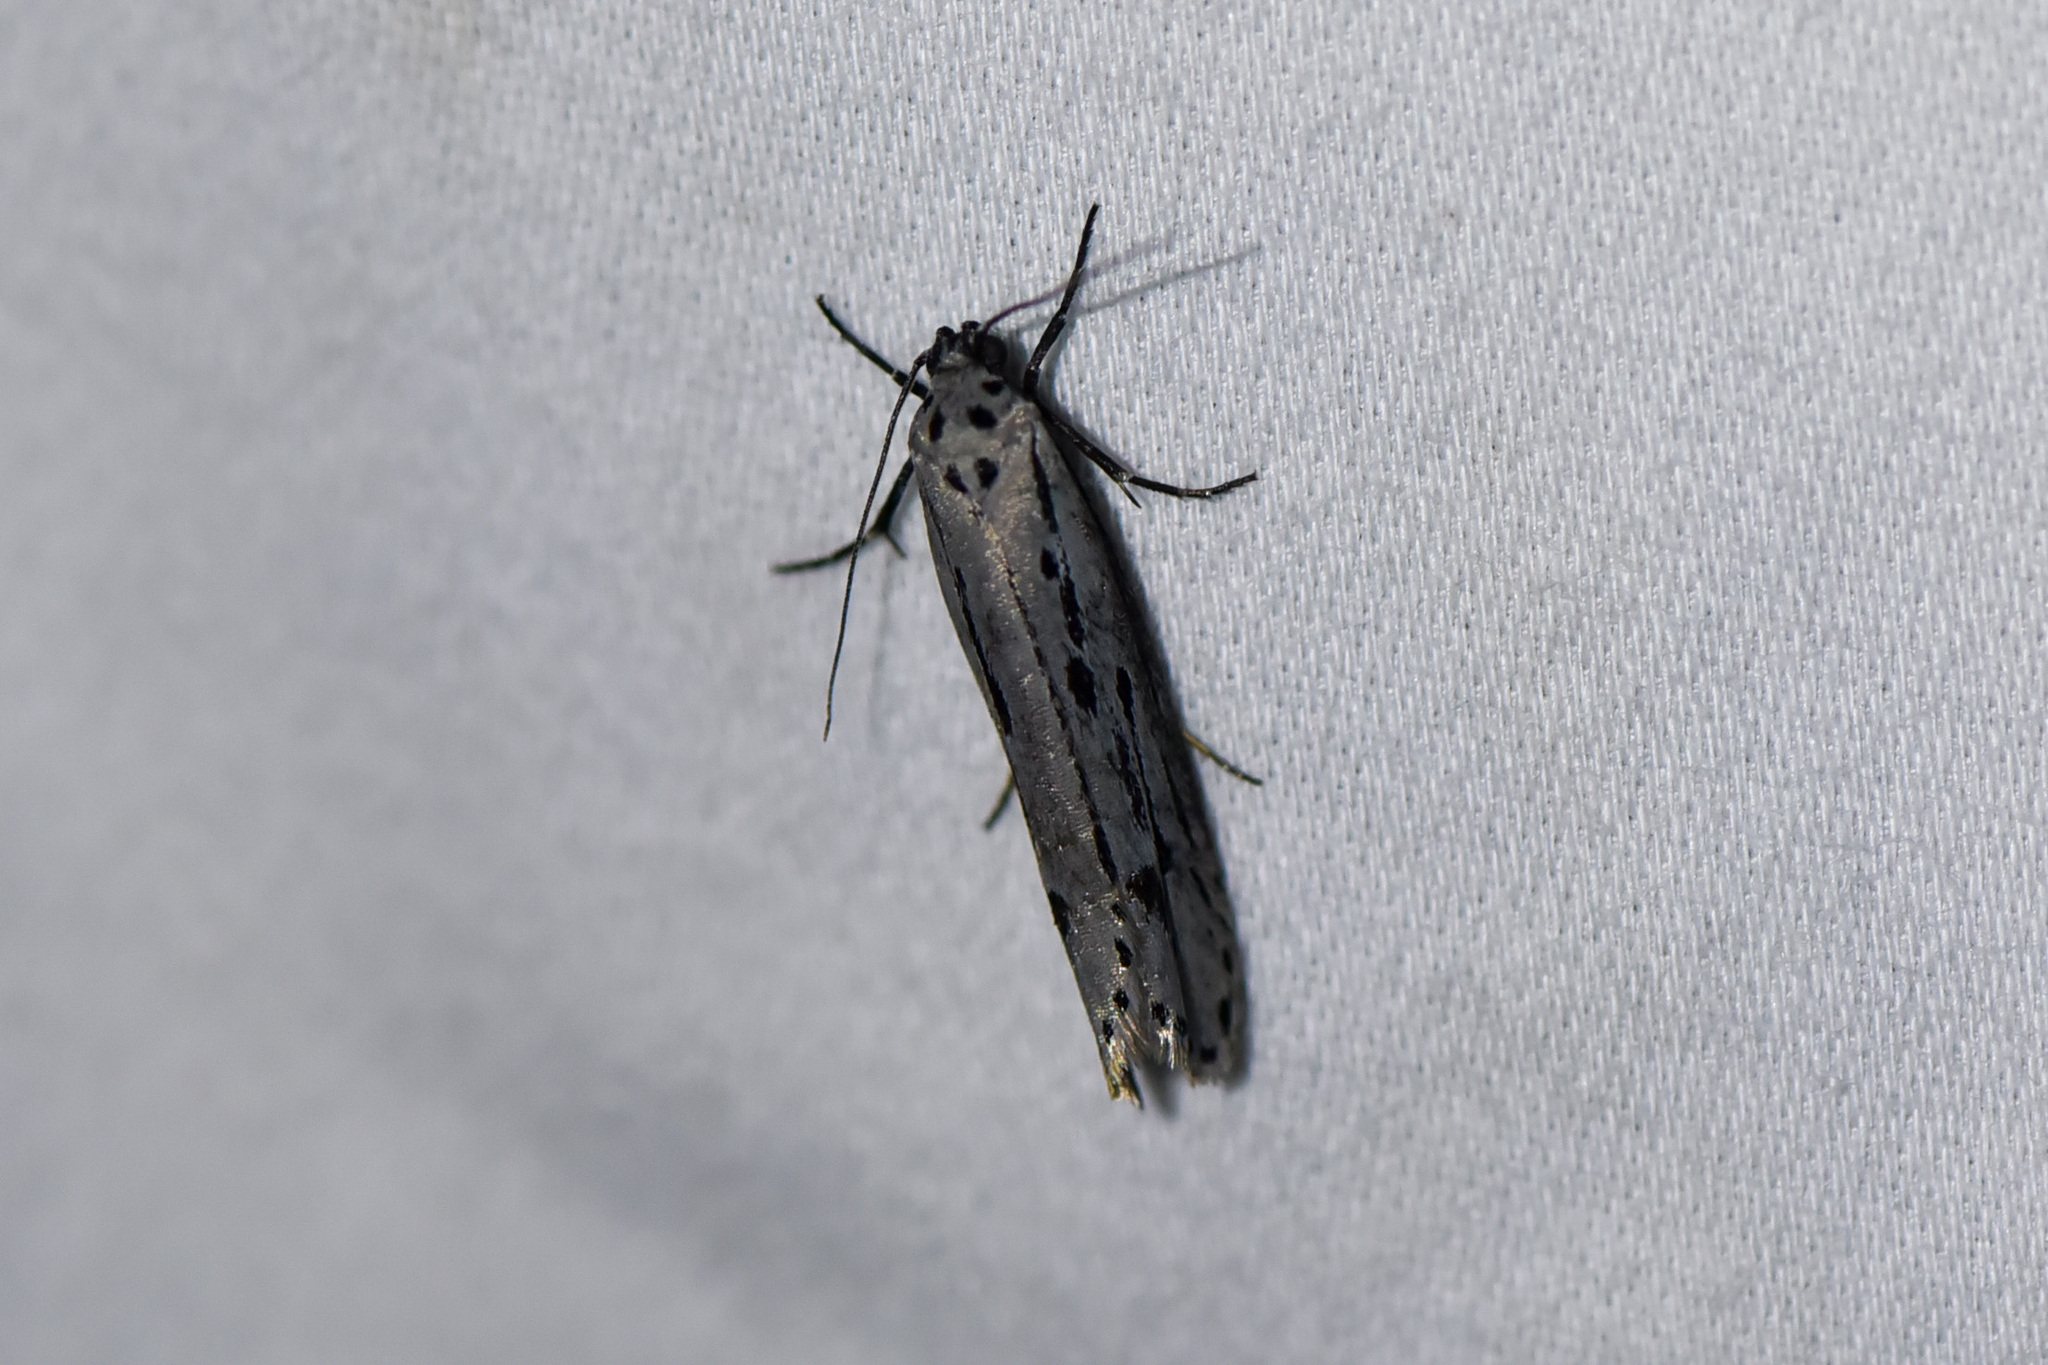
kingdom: Animalia
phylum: Arthropoda
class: Insecta
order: Lepidoptera
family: Ethmiidae
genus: Ethmia
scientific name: Ethmia monticola
